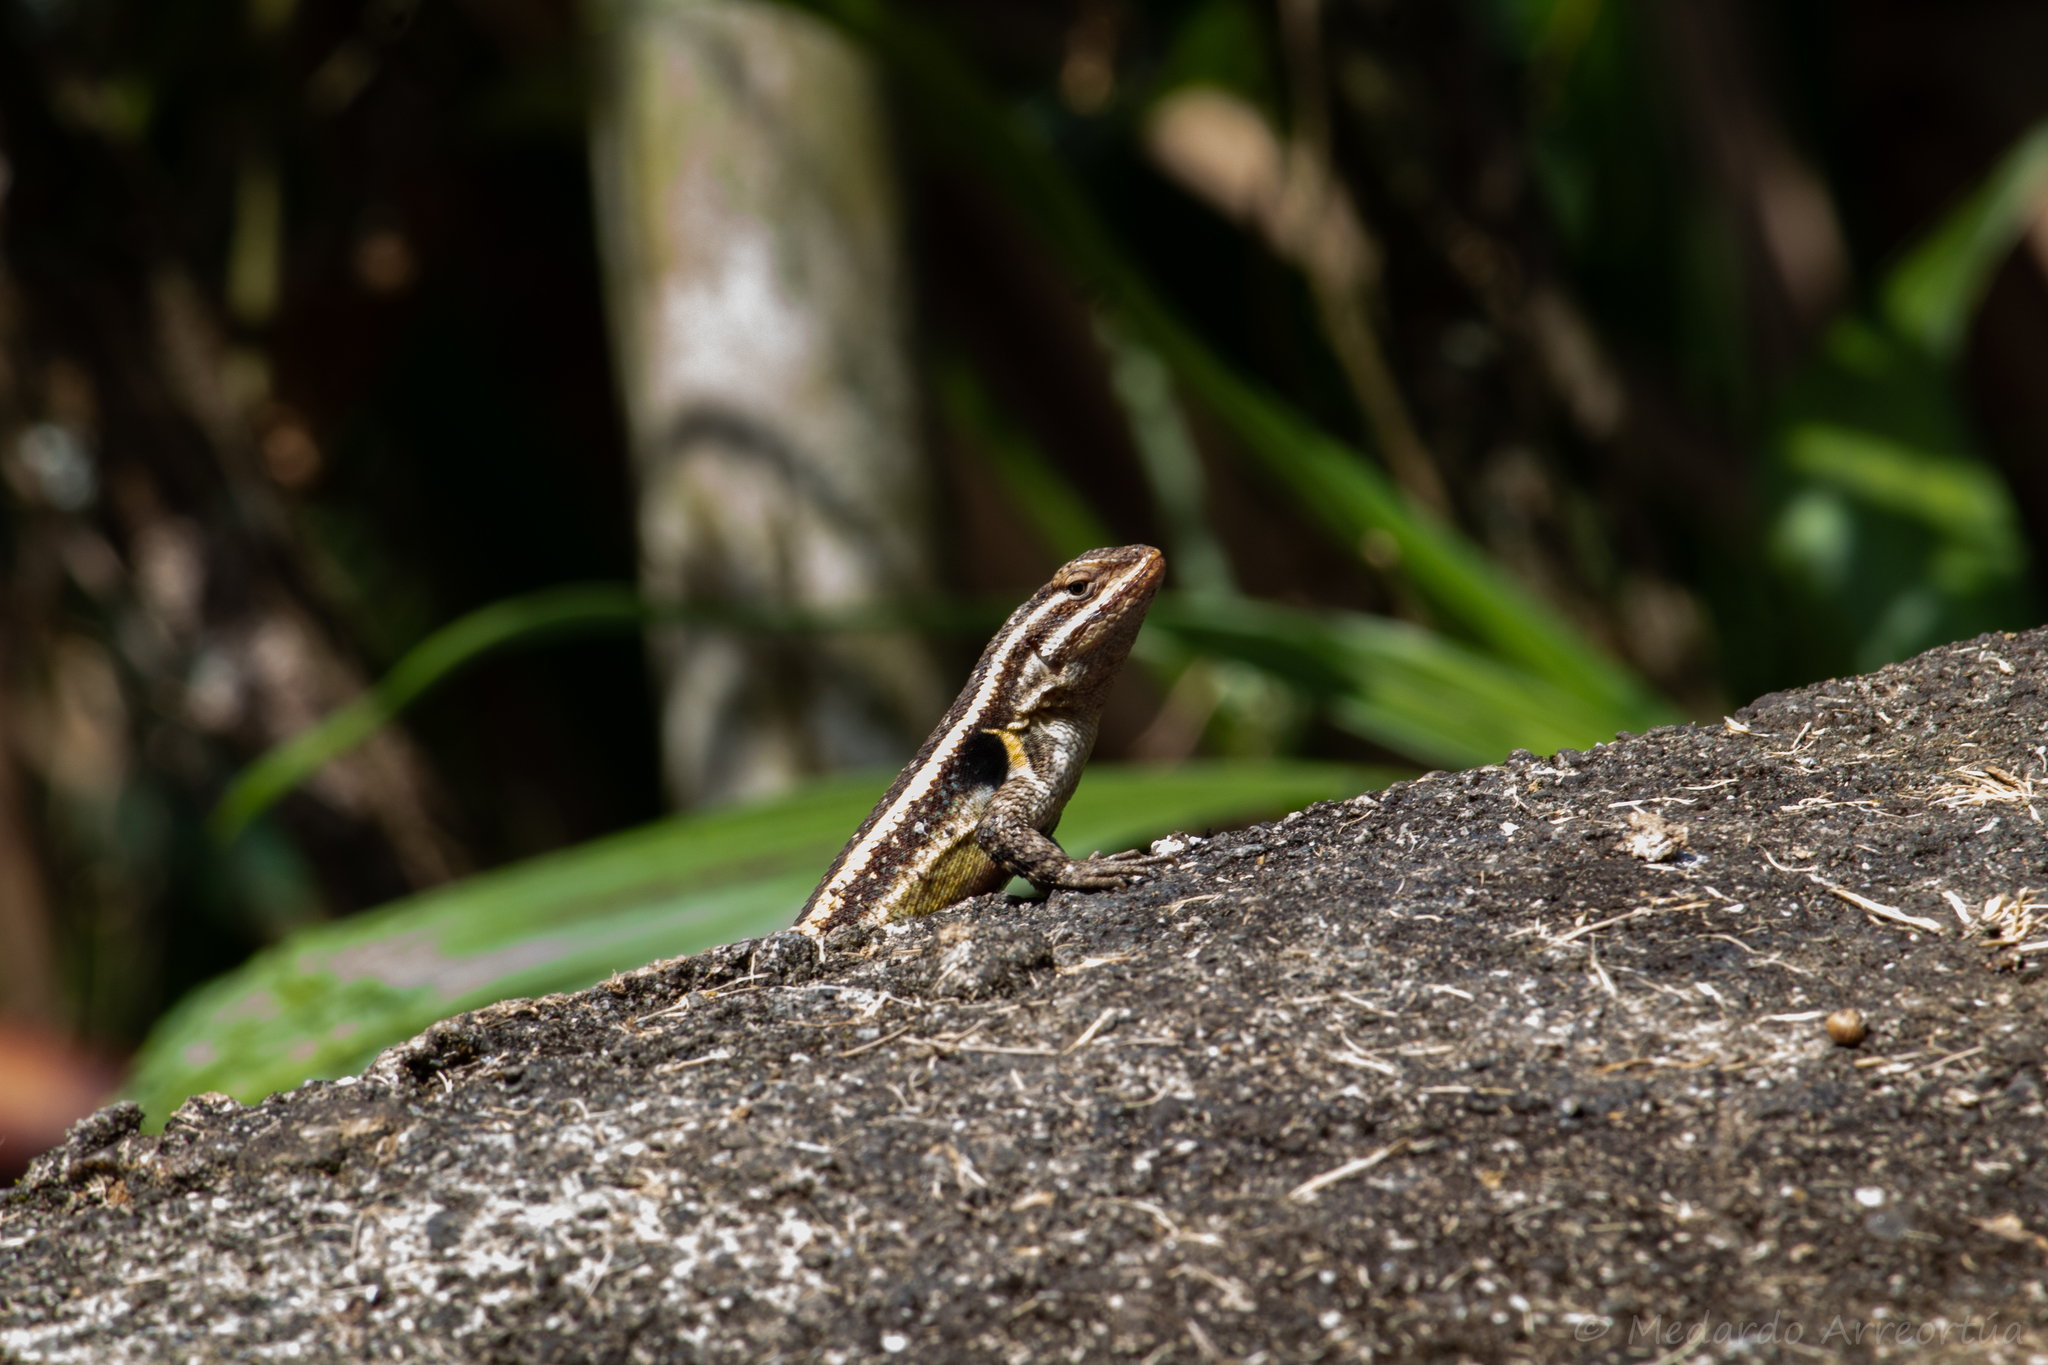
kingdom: Animalia
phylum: Chordata
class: Squamata
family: Phrynosomatidae
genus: Sceloporus
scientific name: Sceloporus variabilis
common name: Rosebelly lizard
